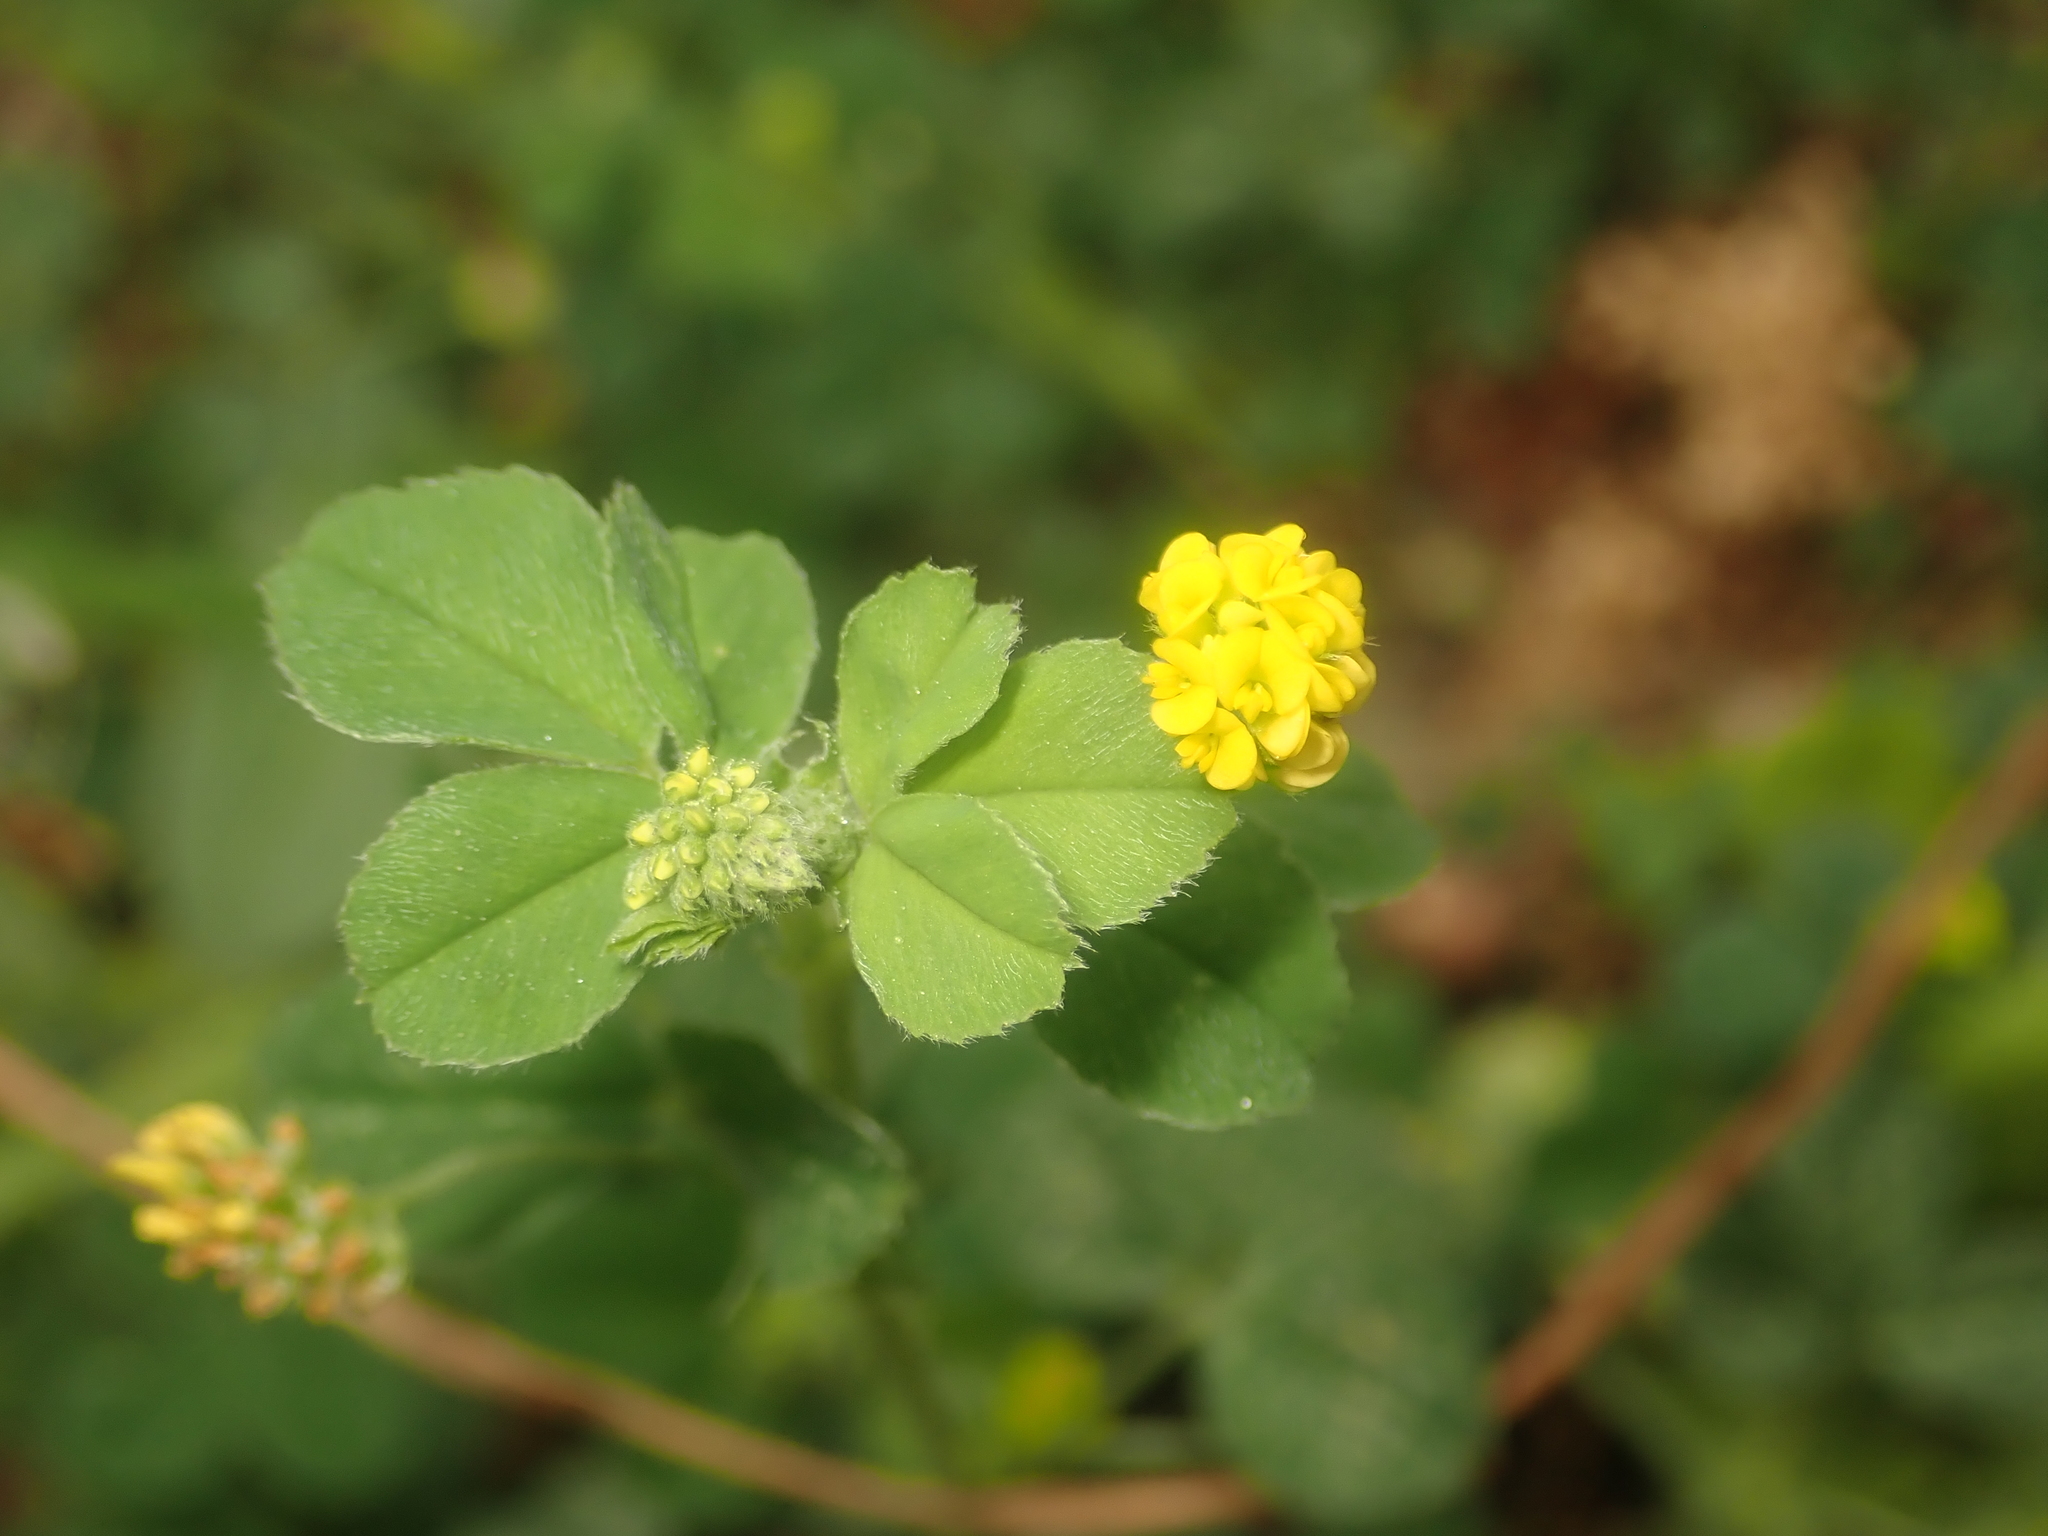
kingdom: Plantae
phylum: Tracheophyta
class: Magnoliopsida
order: Fabales
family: Fabaceae
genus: Medicago
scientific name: Medicago lupulina
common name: Black medick
